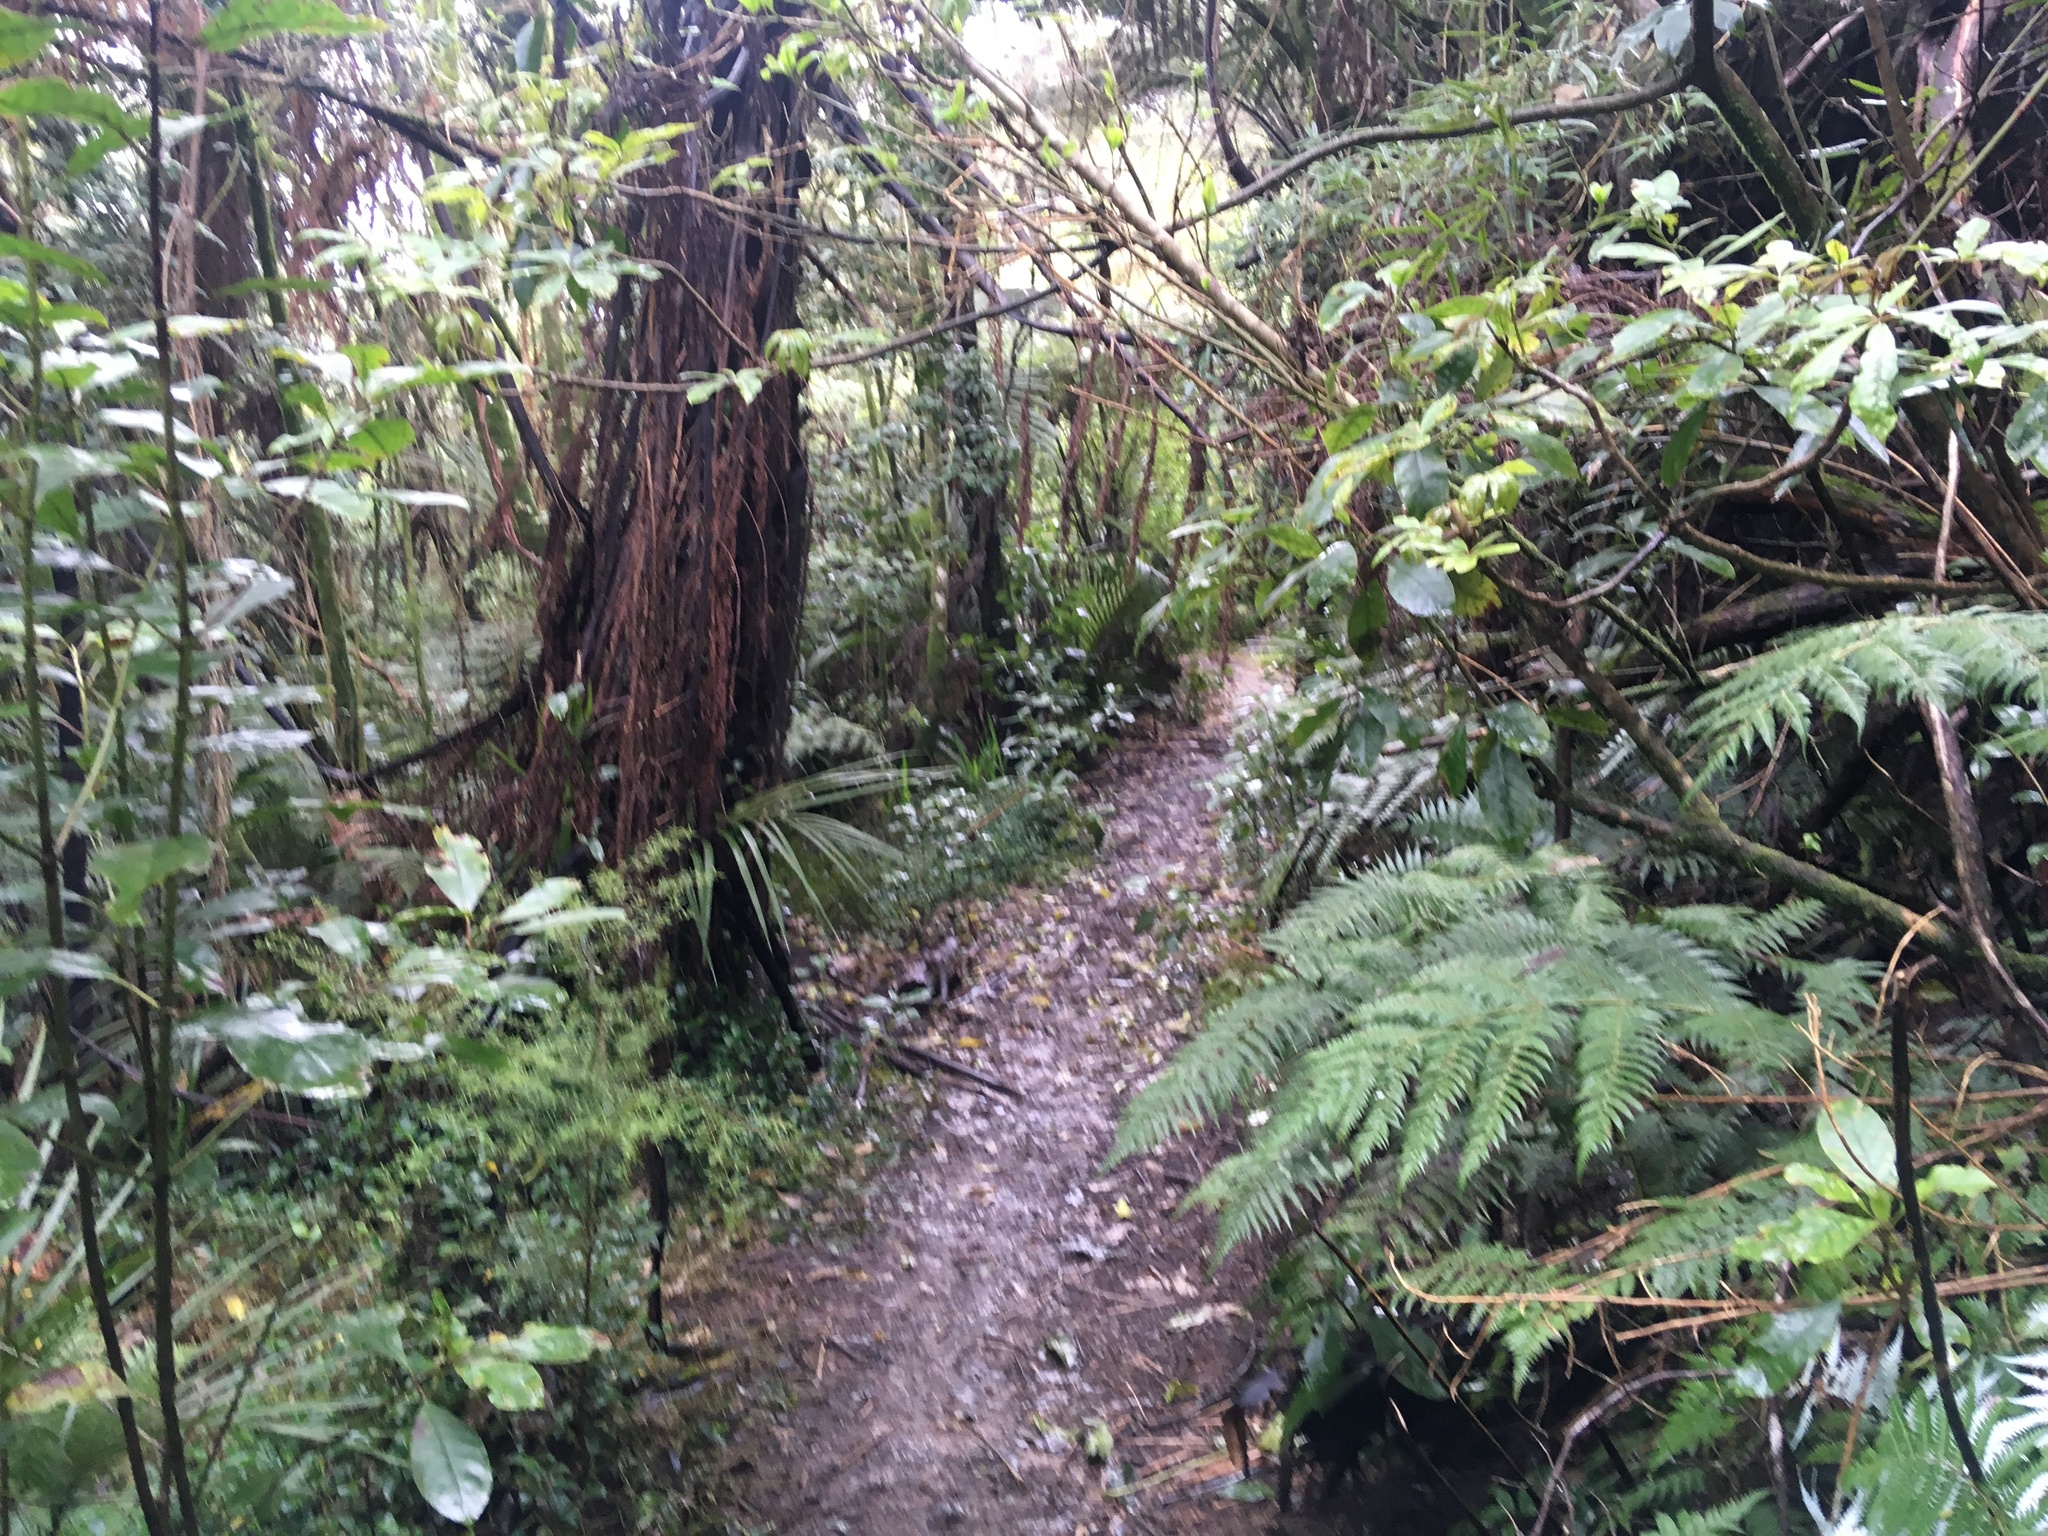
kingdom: Plantae
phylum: Tracheophyta
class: Magnoliopsida
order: Apiales
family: Araliaceae
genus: Schefflera
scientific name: Schefflera digitata
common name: Pate
